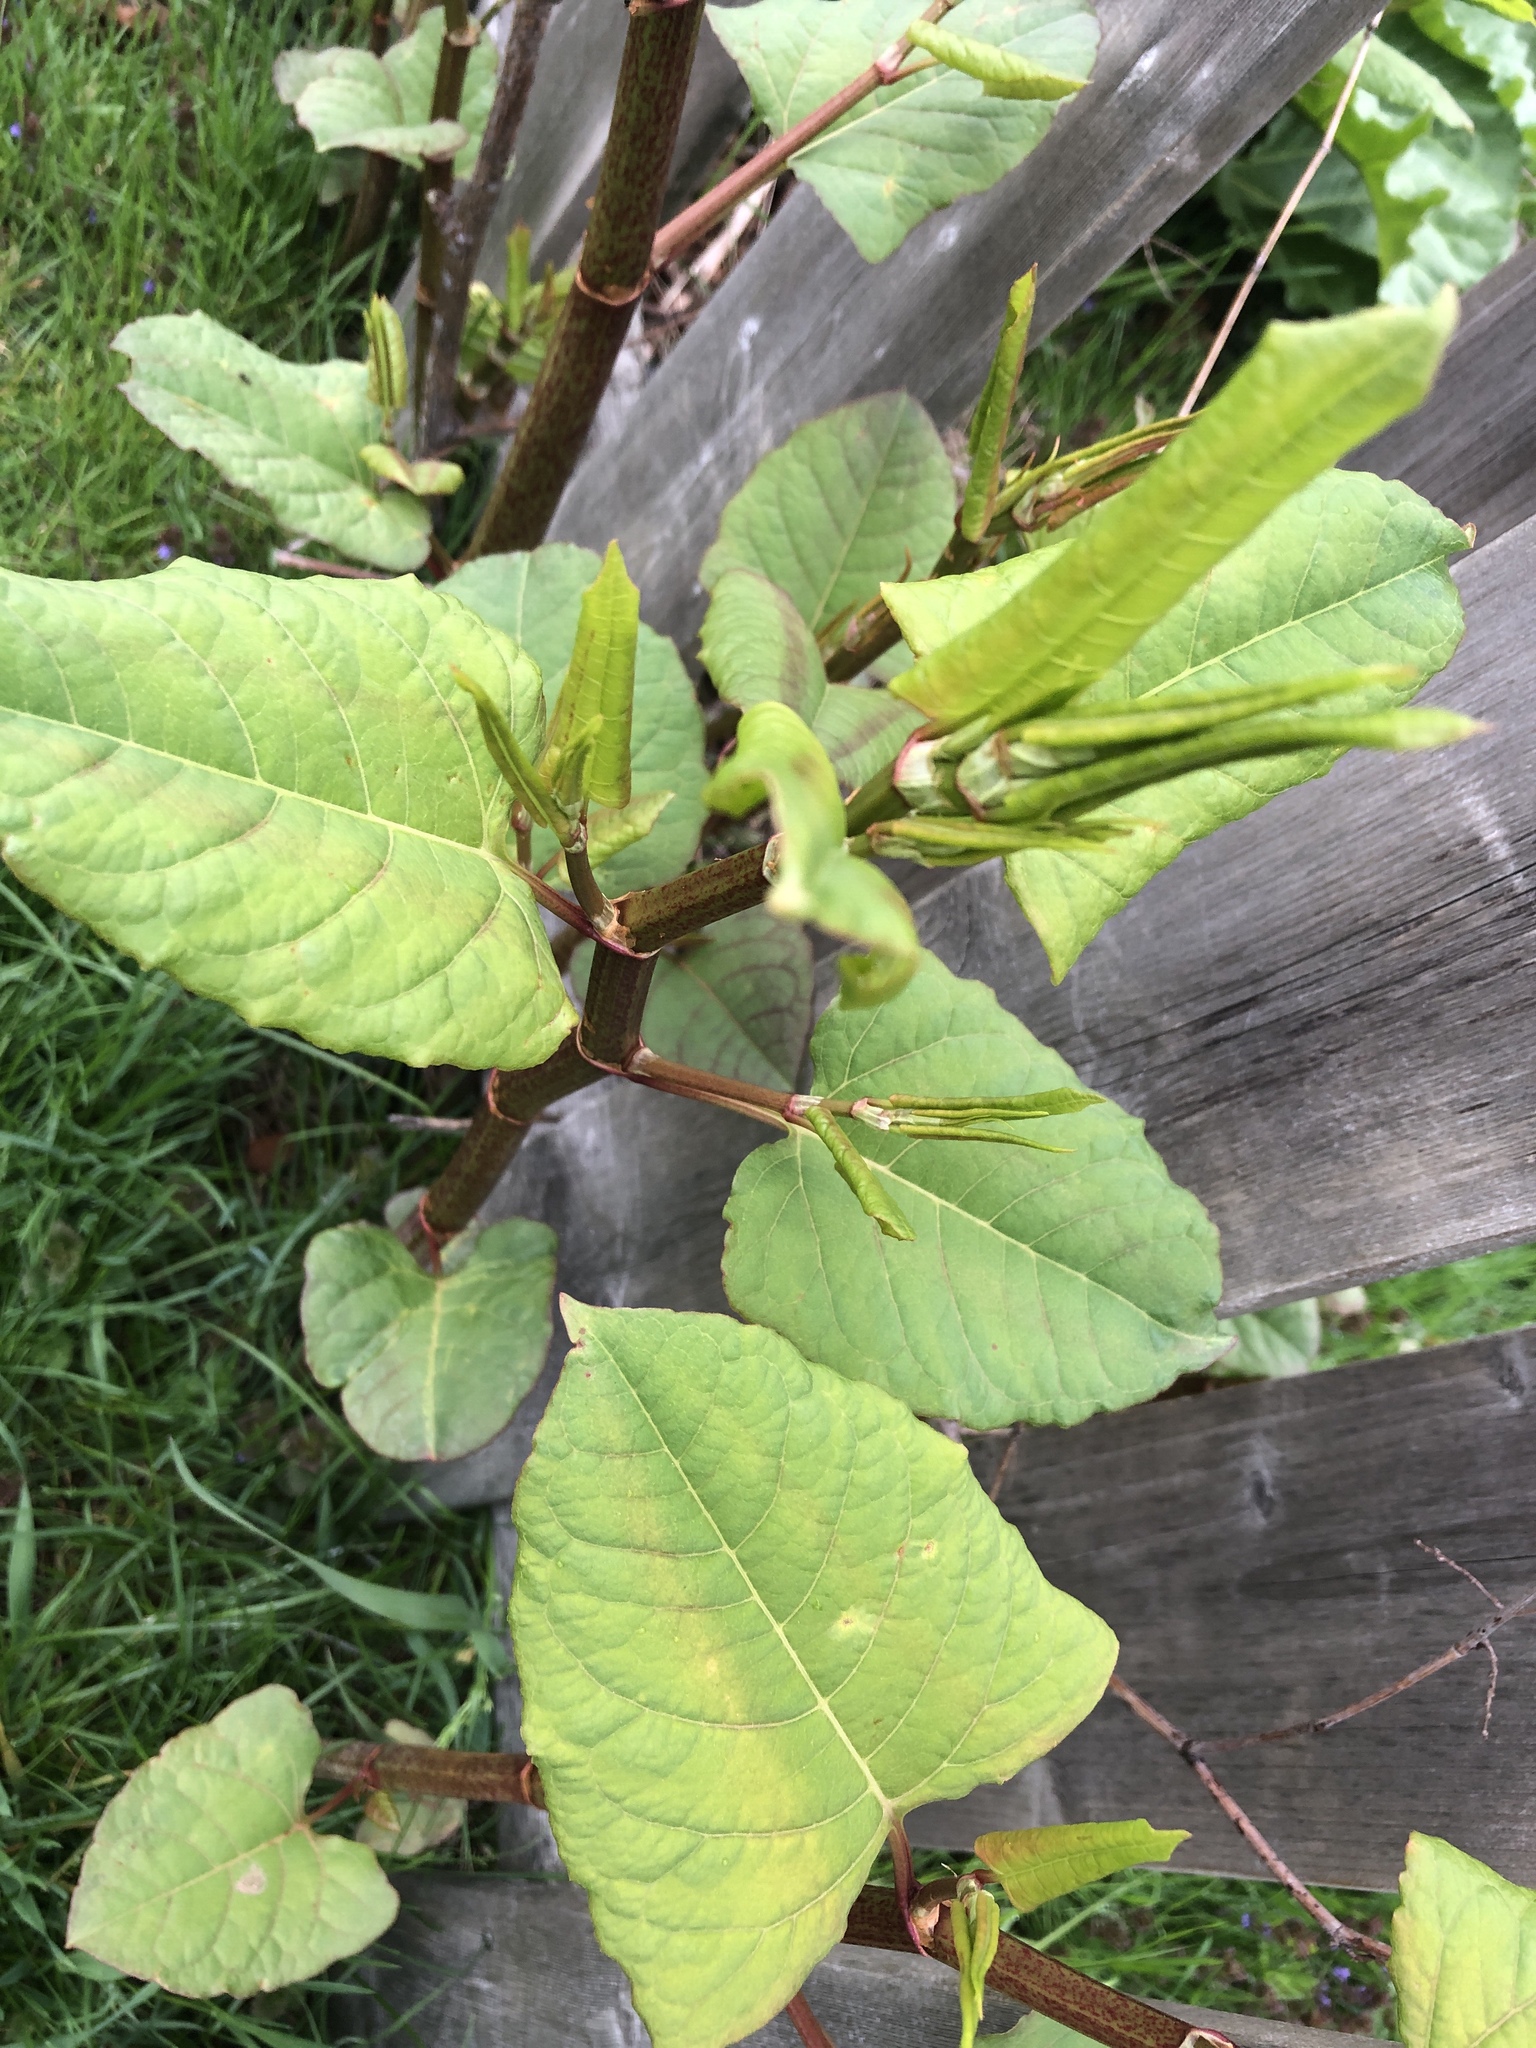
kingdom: Plantae
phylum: Tracheophyta
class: Magnoliopsida
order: Caryophyllales
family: Polygonaceae
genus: Reynoutria
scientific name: Reynoutria japonica
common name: Japanese knotweed
